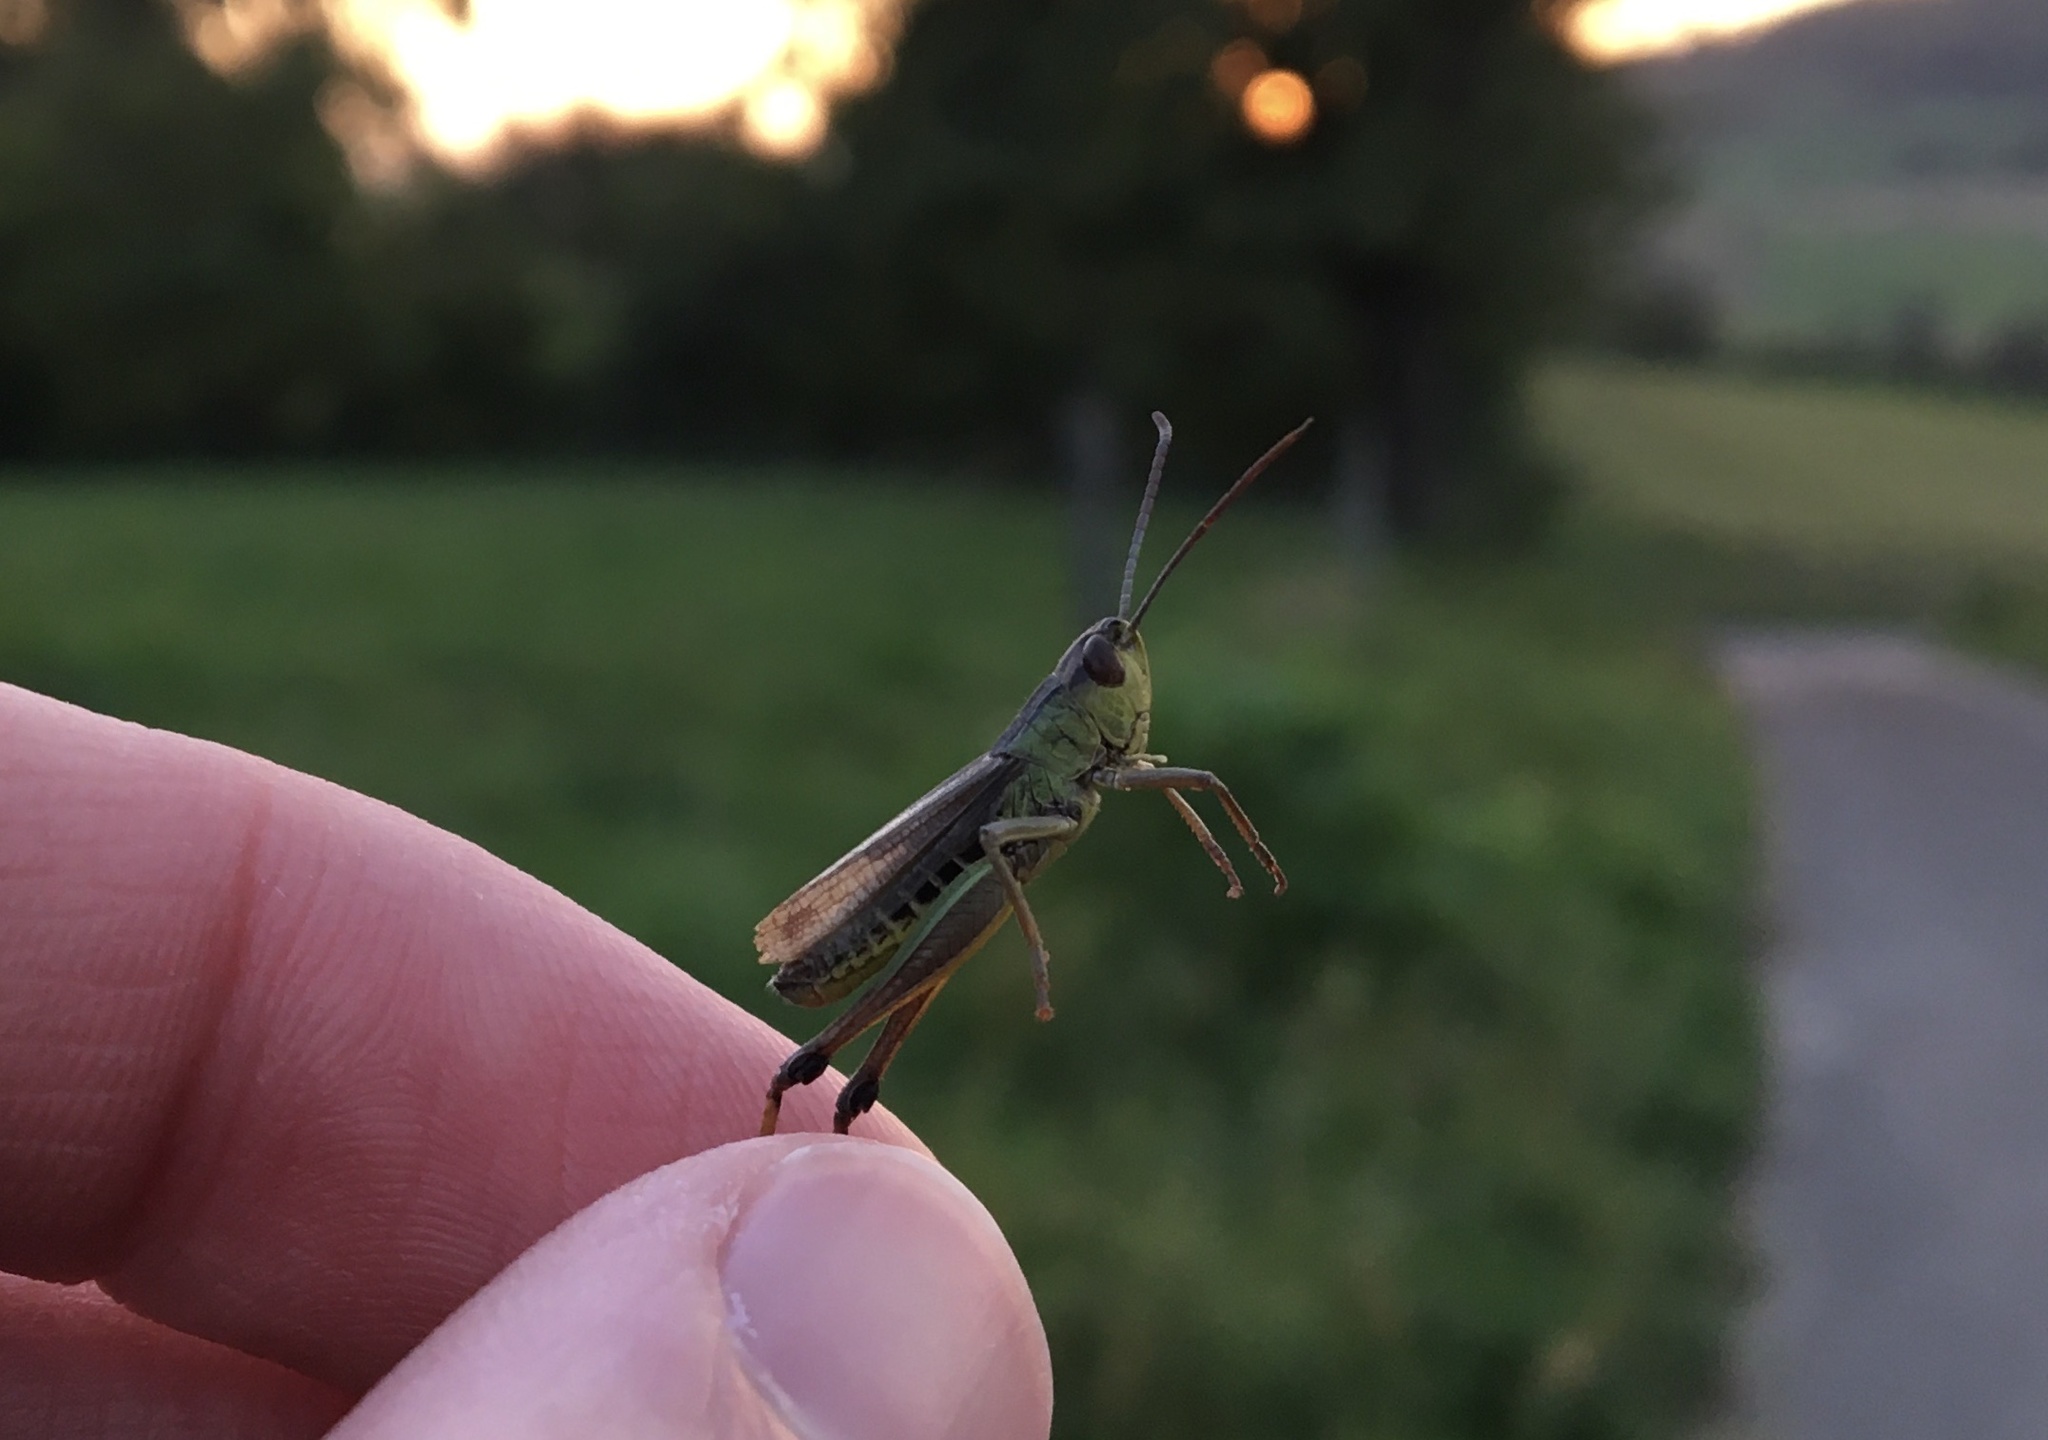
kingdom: Animalia
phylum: Arthropoda
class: Insecta
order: Orthoptera
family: Acrididae
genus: Pseudochorthippus
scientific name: Pseudochorthippus parallelus
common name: Meadow grasshopper
